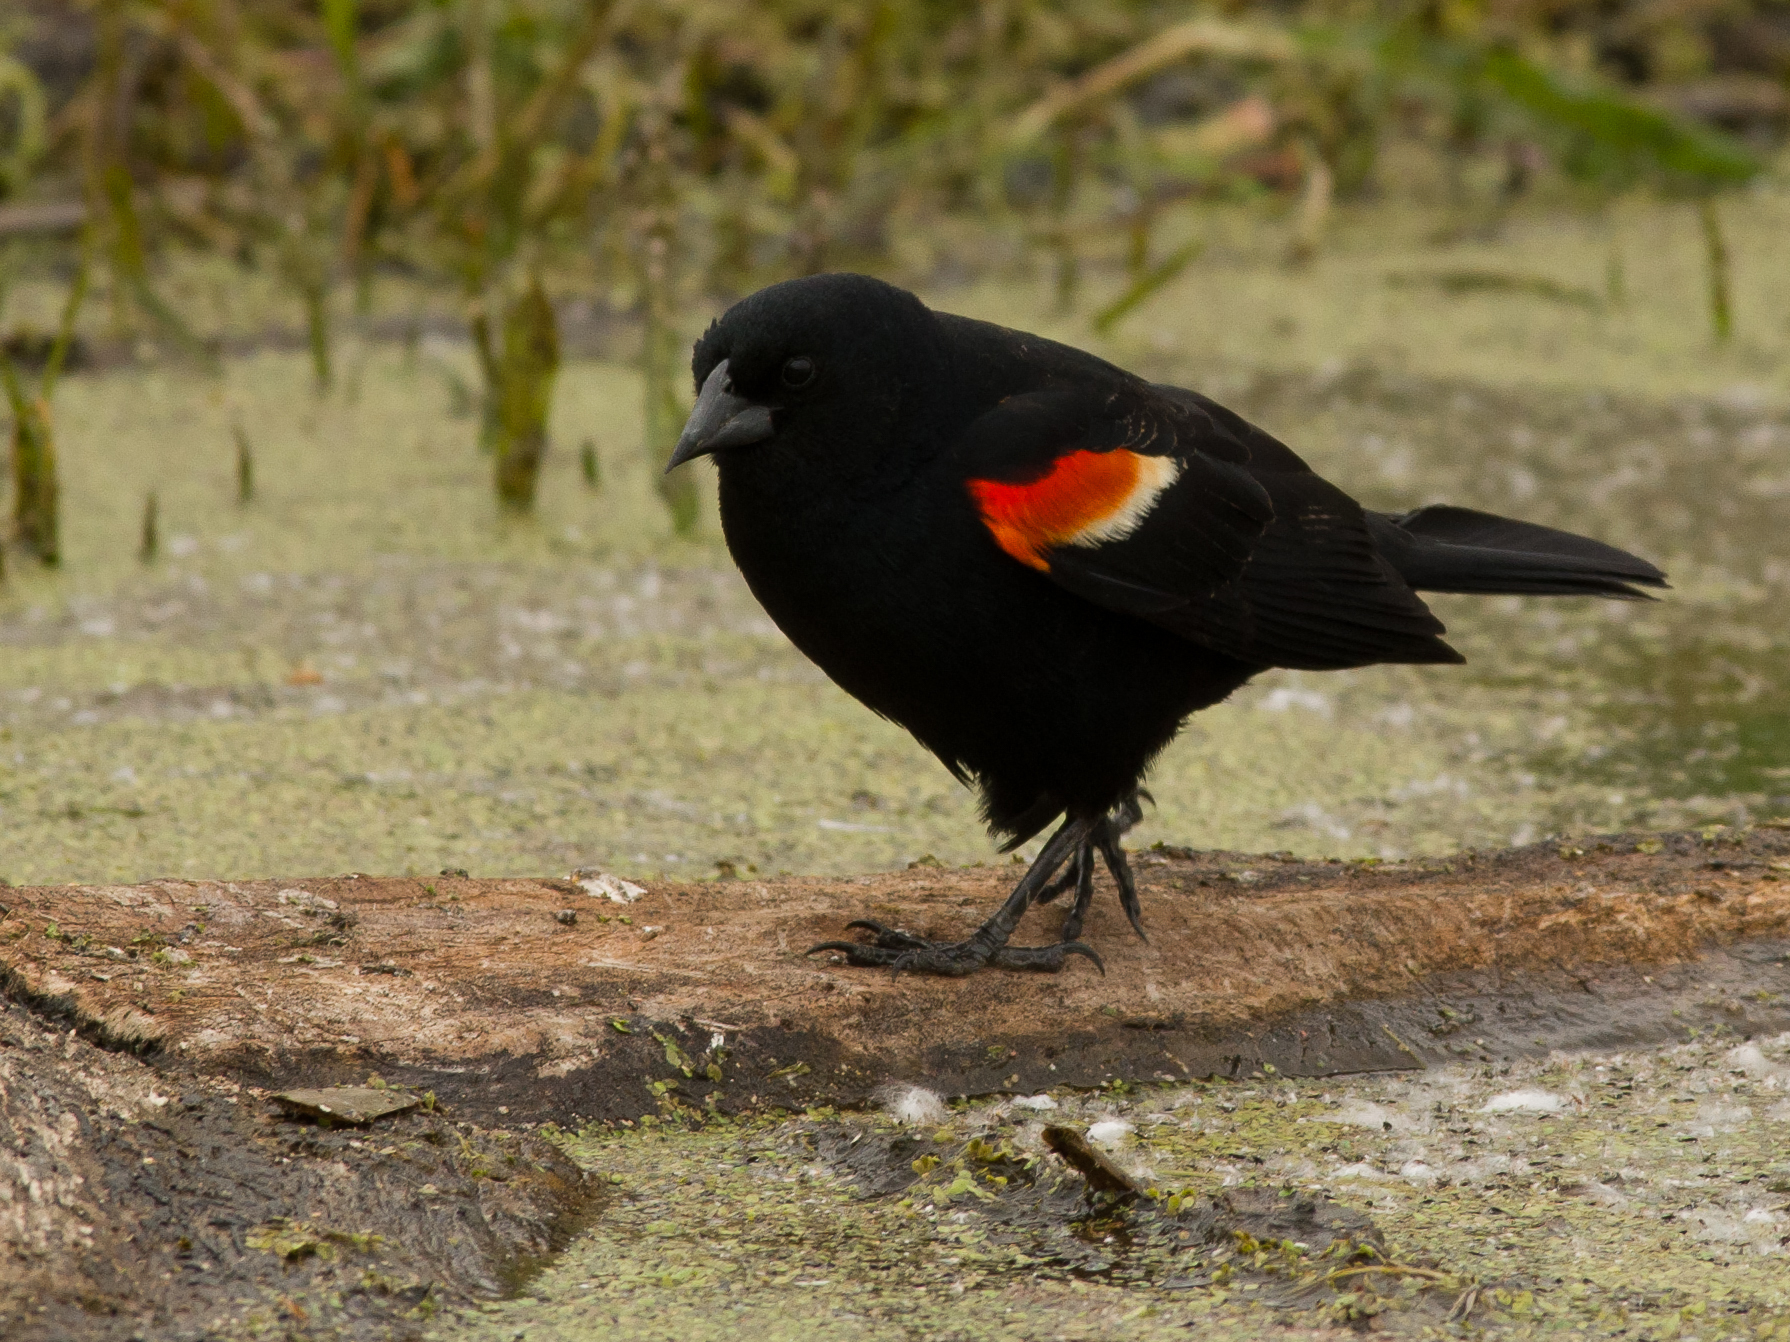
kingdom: Animalia
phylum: Chordata
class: Aves
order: Passeriformes
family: Icteridae
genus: Agelaius
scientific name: Agelaius phoeniceus
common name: Red-winged blackbird
